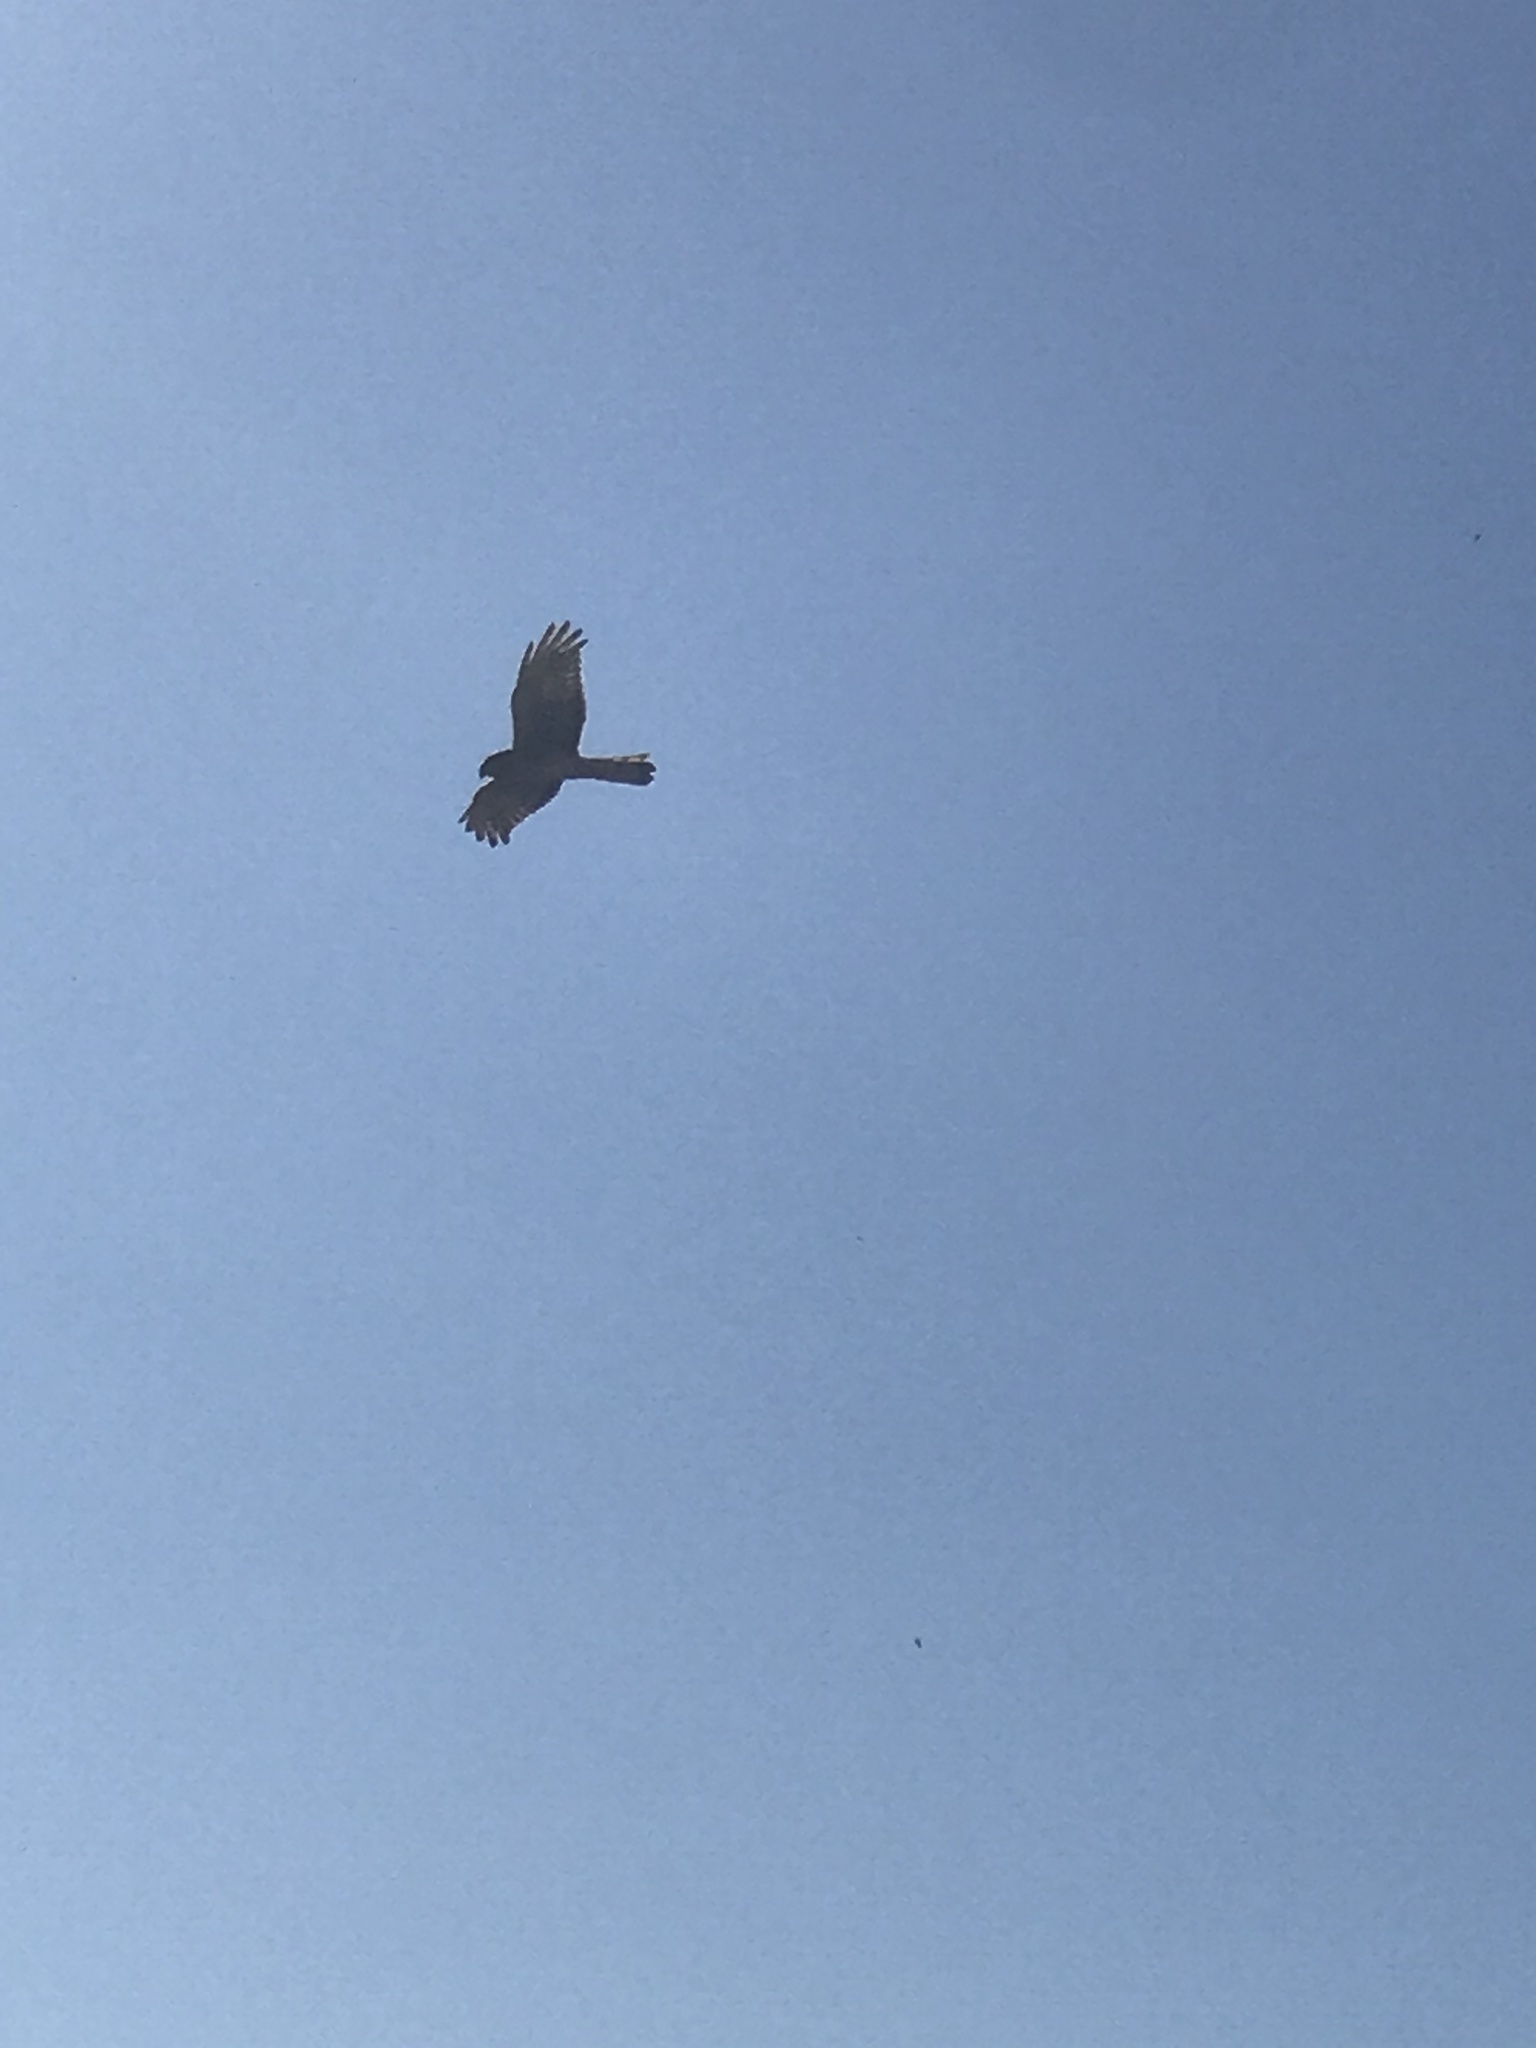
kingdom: Animalia
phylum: Chordata
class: Aves
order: Accipitriformes
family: Accipitridae
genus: Circus
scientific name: Circus cyaneus
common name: Hen harrier
